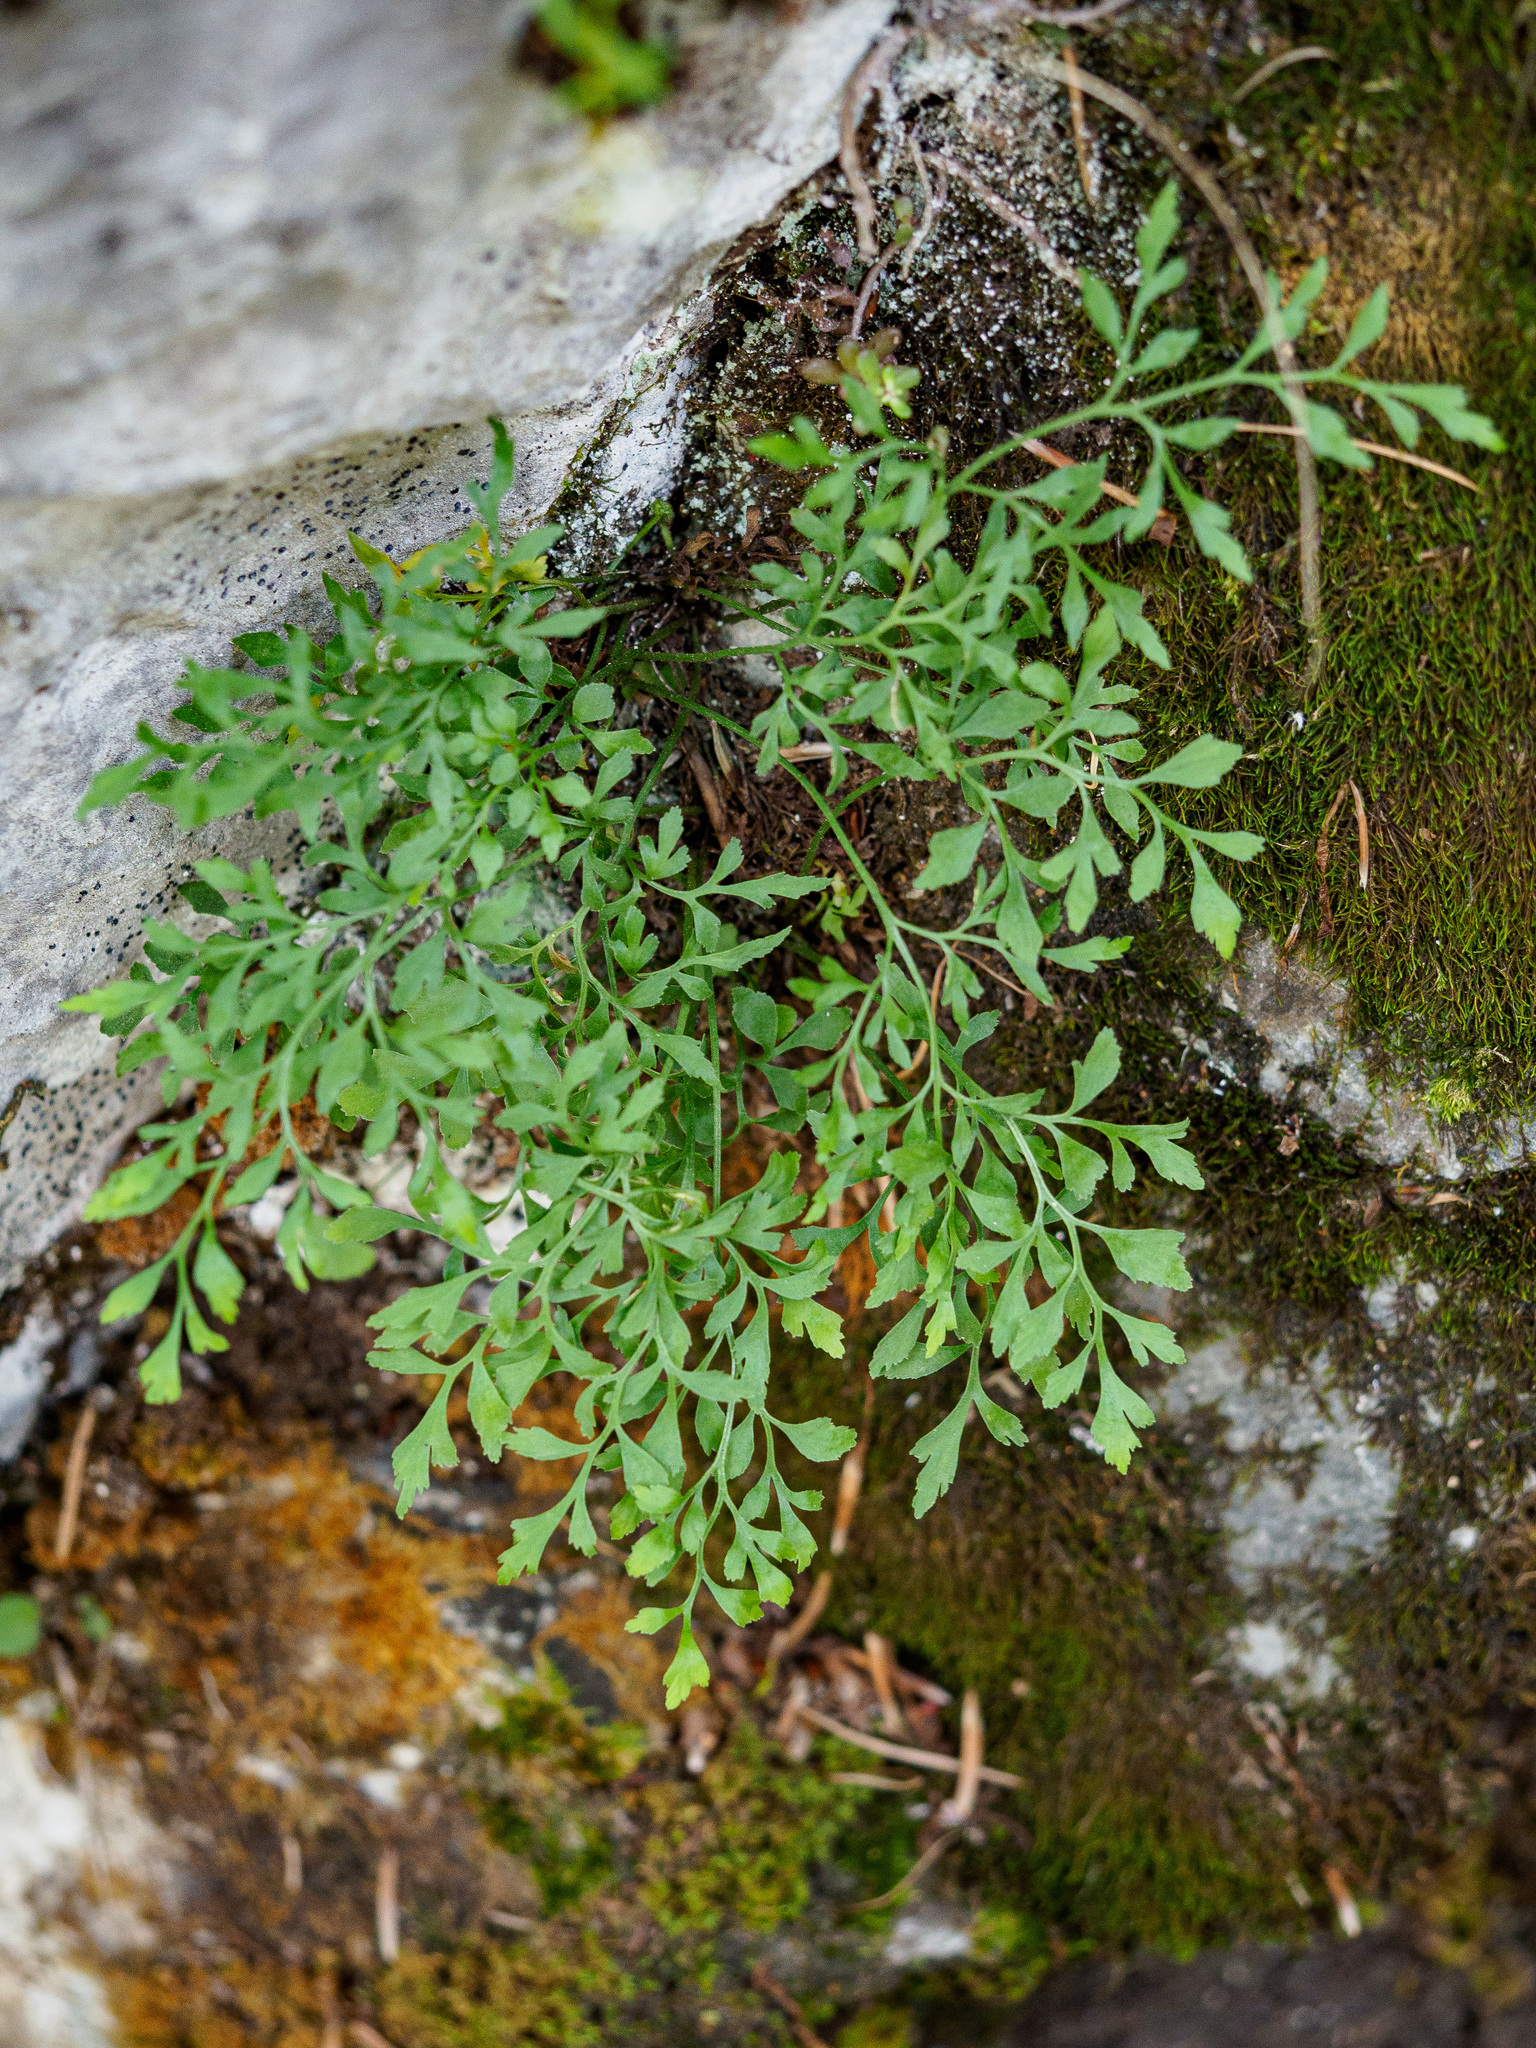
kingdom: Plantae
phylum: Tracheophyta
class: Polypodiopsida
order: Polypodiales
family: Aspleniaceae
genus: Asplenium
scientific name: Asplenium ruta-muraria
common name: Wall-rue
